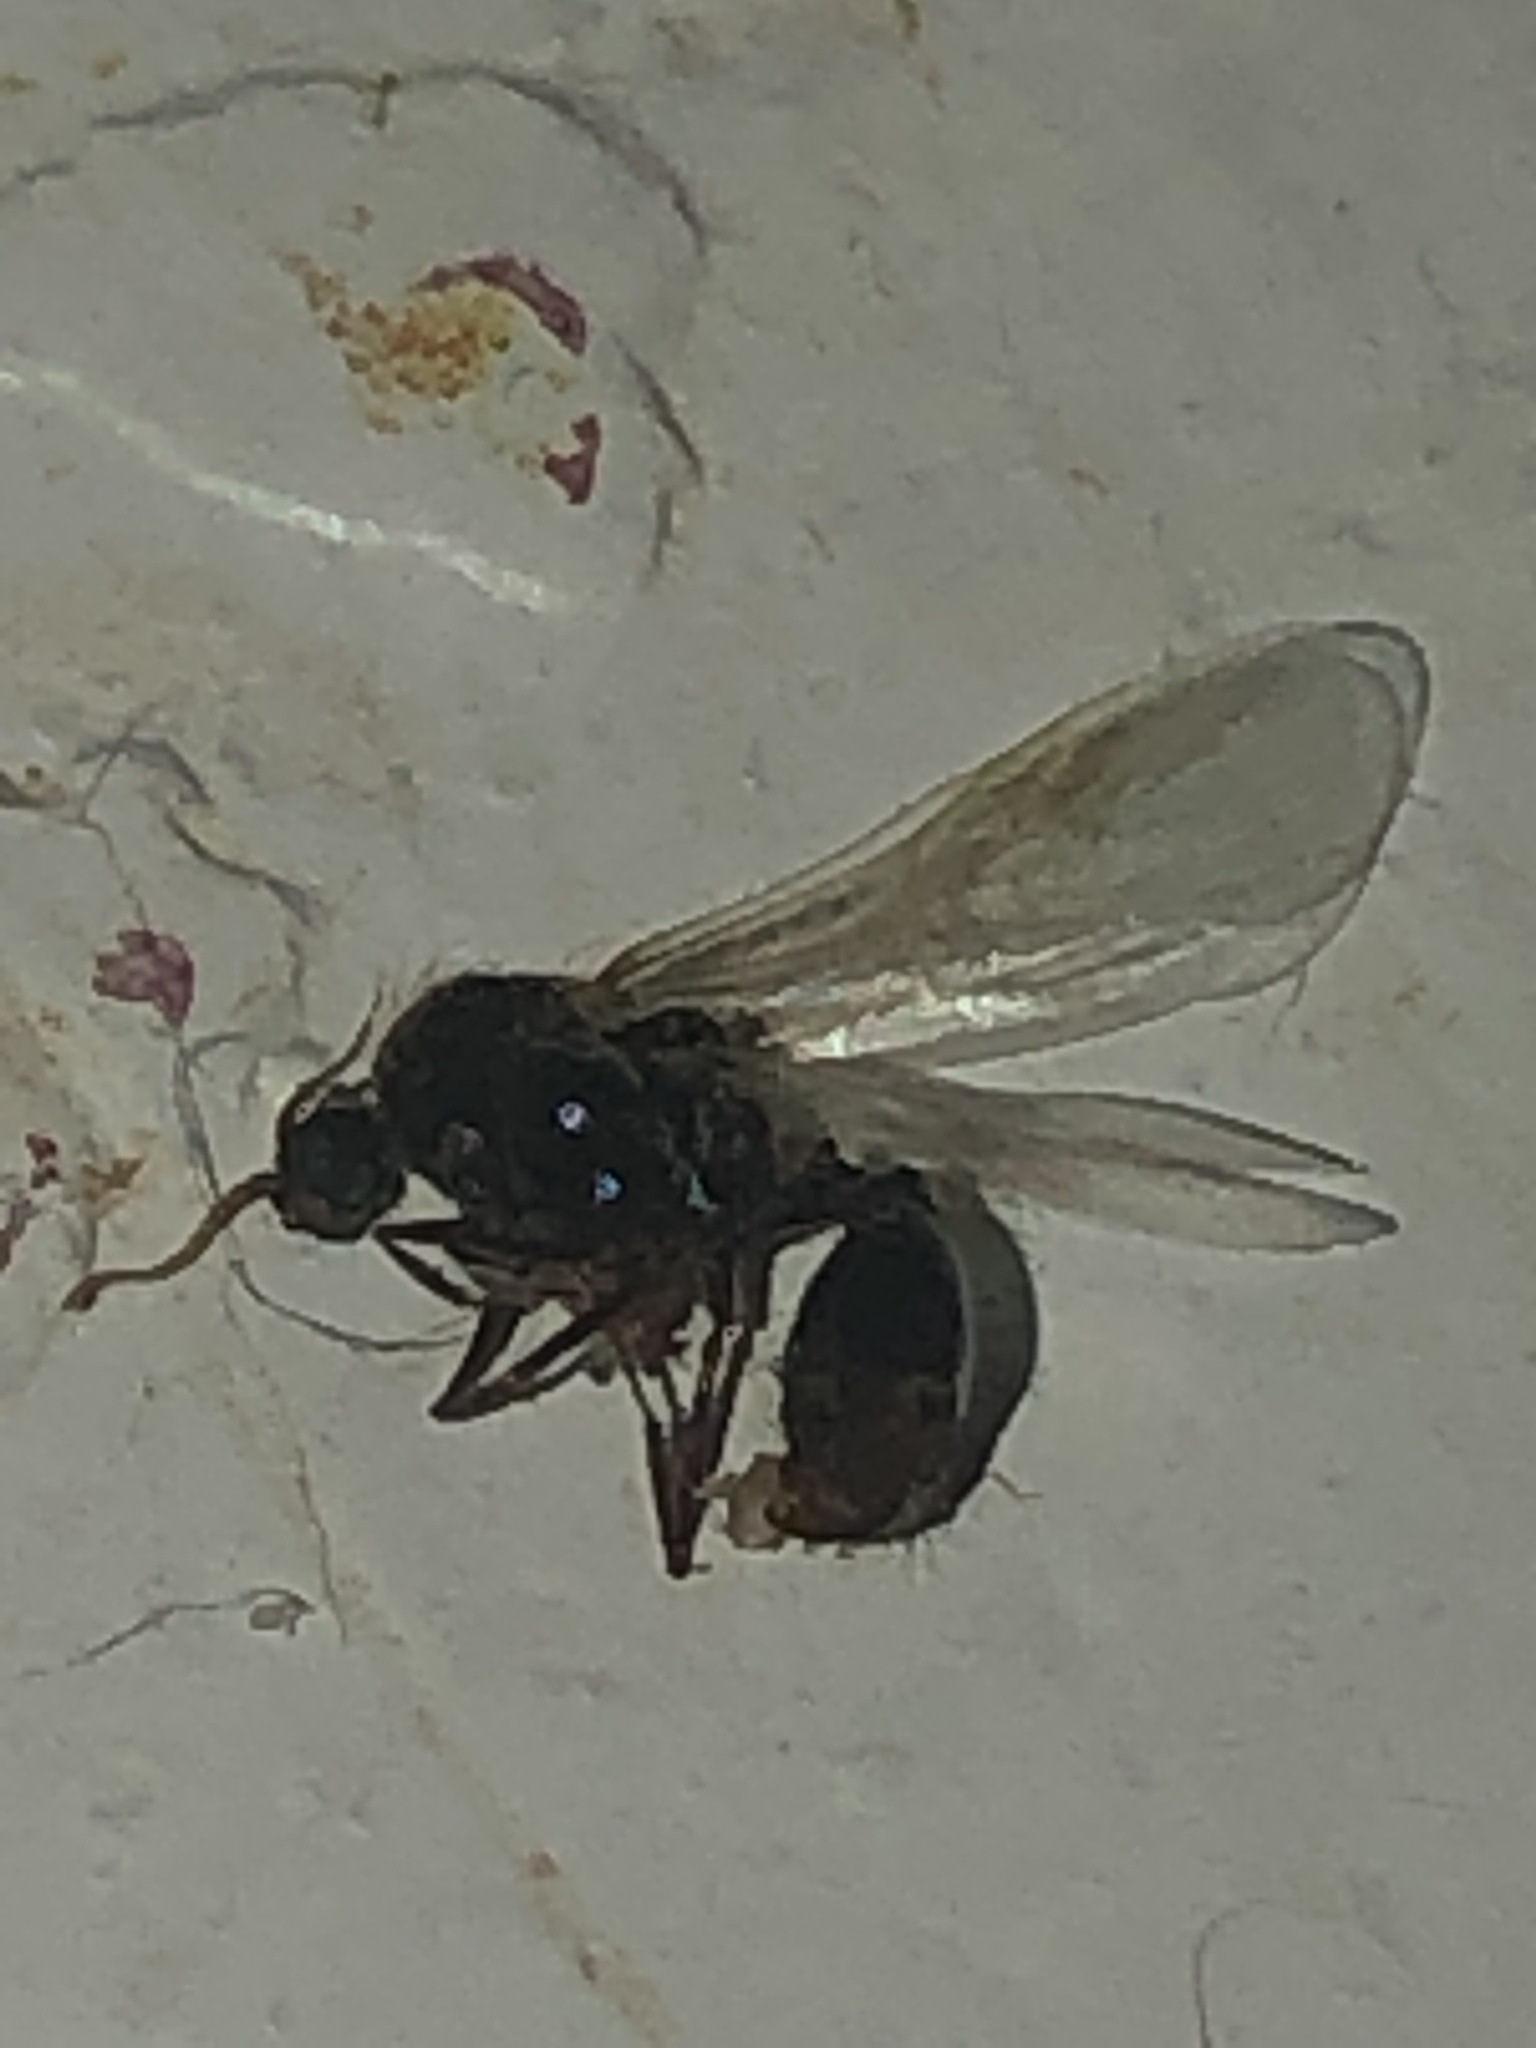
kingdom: Animalia
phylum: Arthropoda
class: Insecta
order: Hymenoptera
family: Formicidae
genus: Solenopsis
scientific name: Solenopsis invicta
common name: Red imported fire ant
